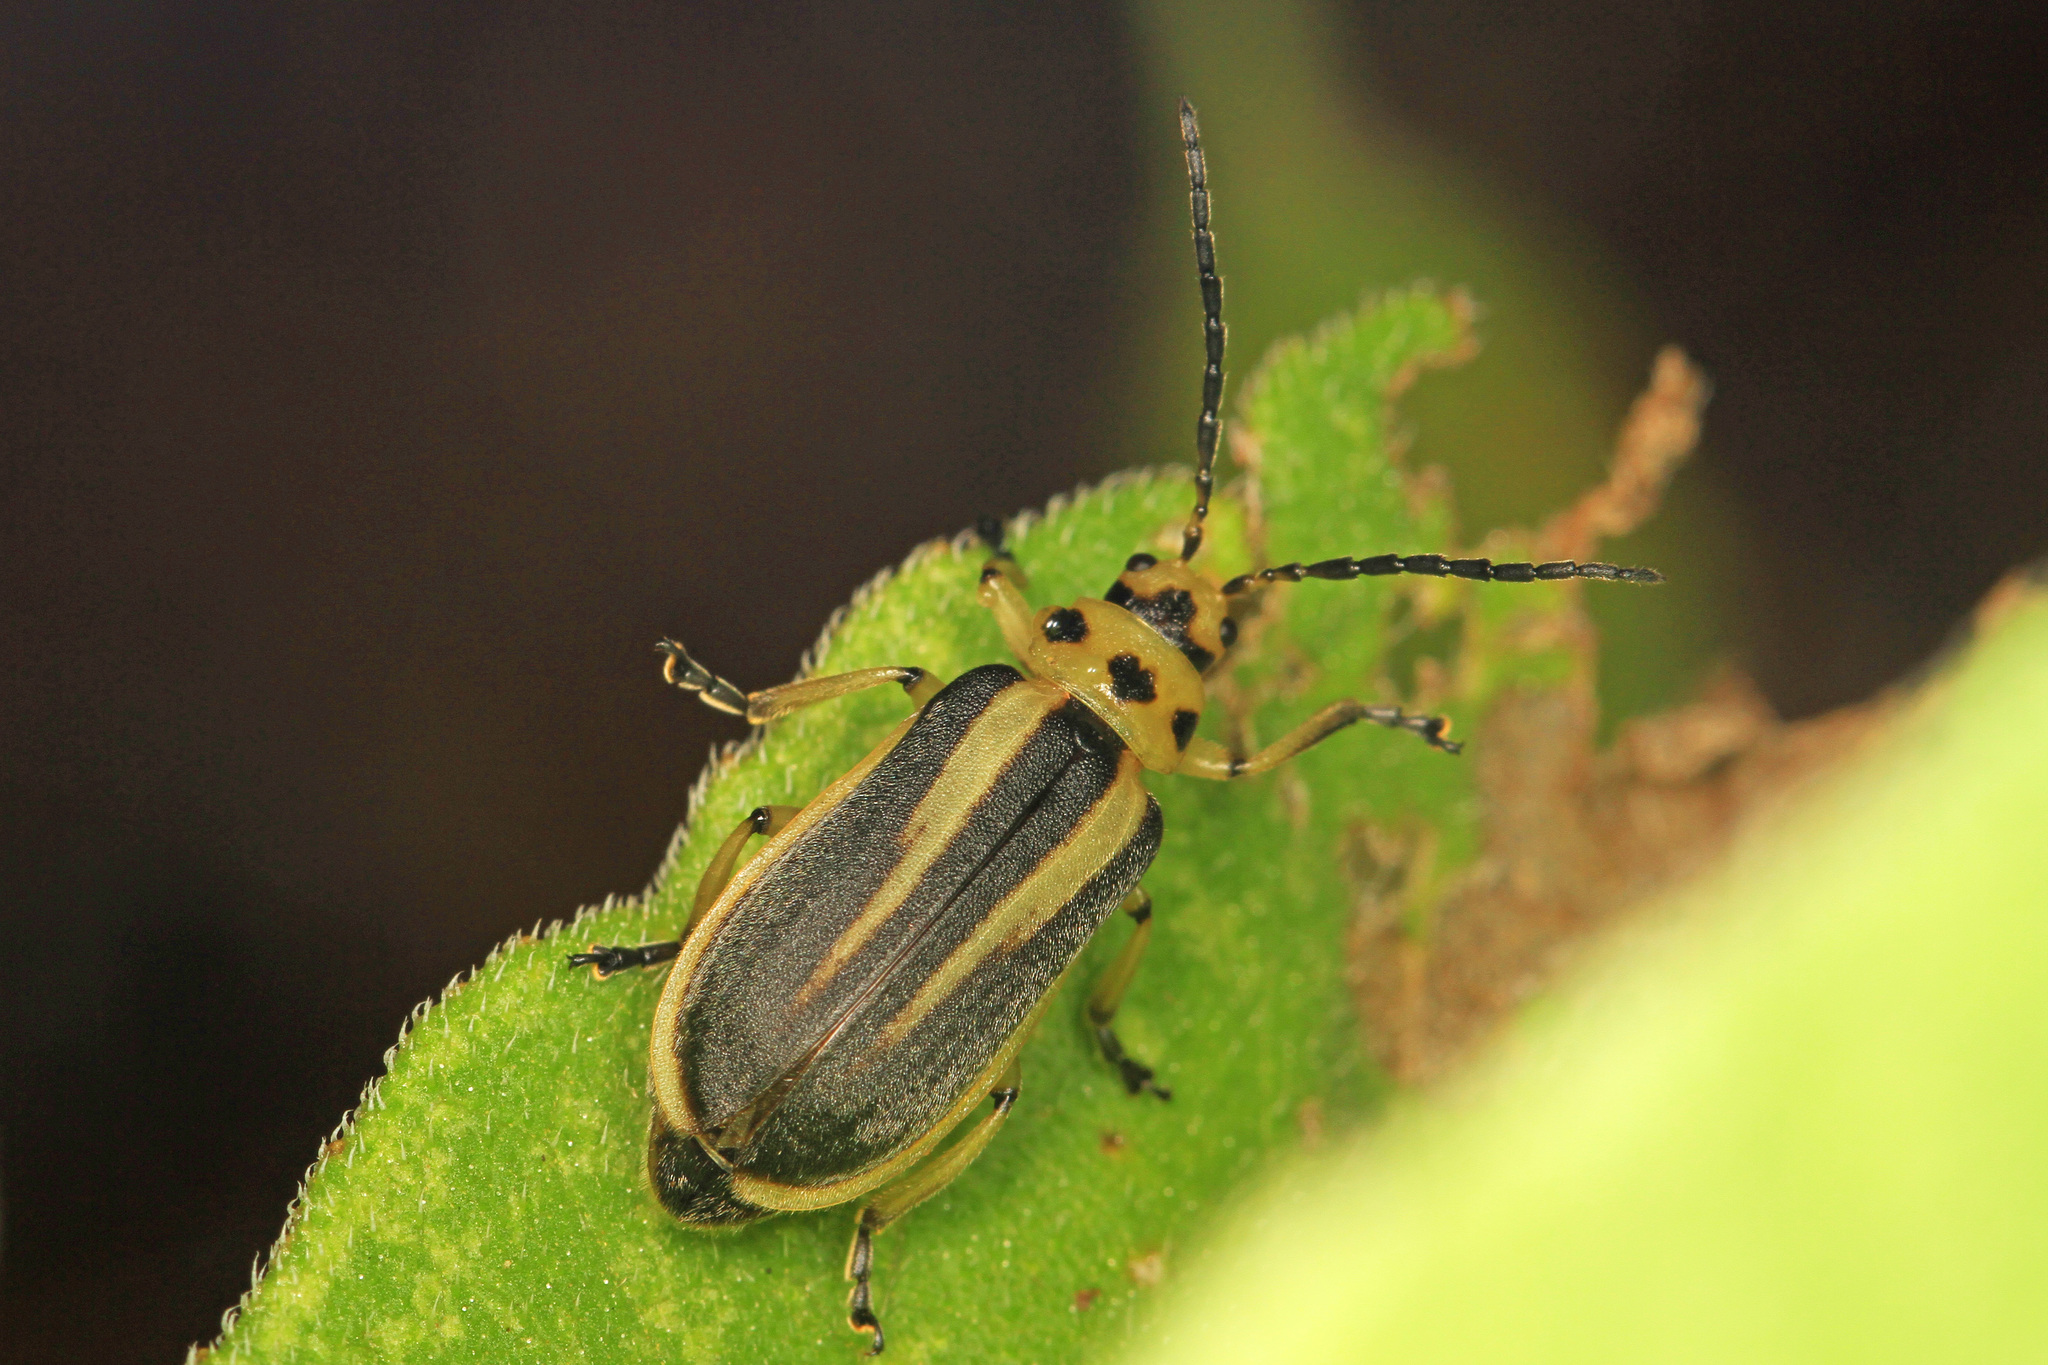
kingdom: Animalia
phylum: Arthropoda
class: Insecta
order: Coleoptera
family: Chrysomelidae
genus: Trirhabda
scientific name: Trirhabda bacharidis
